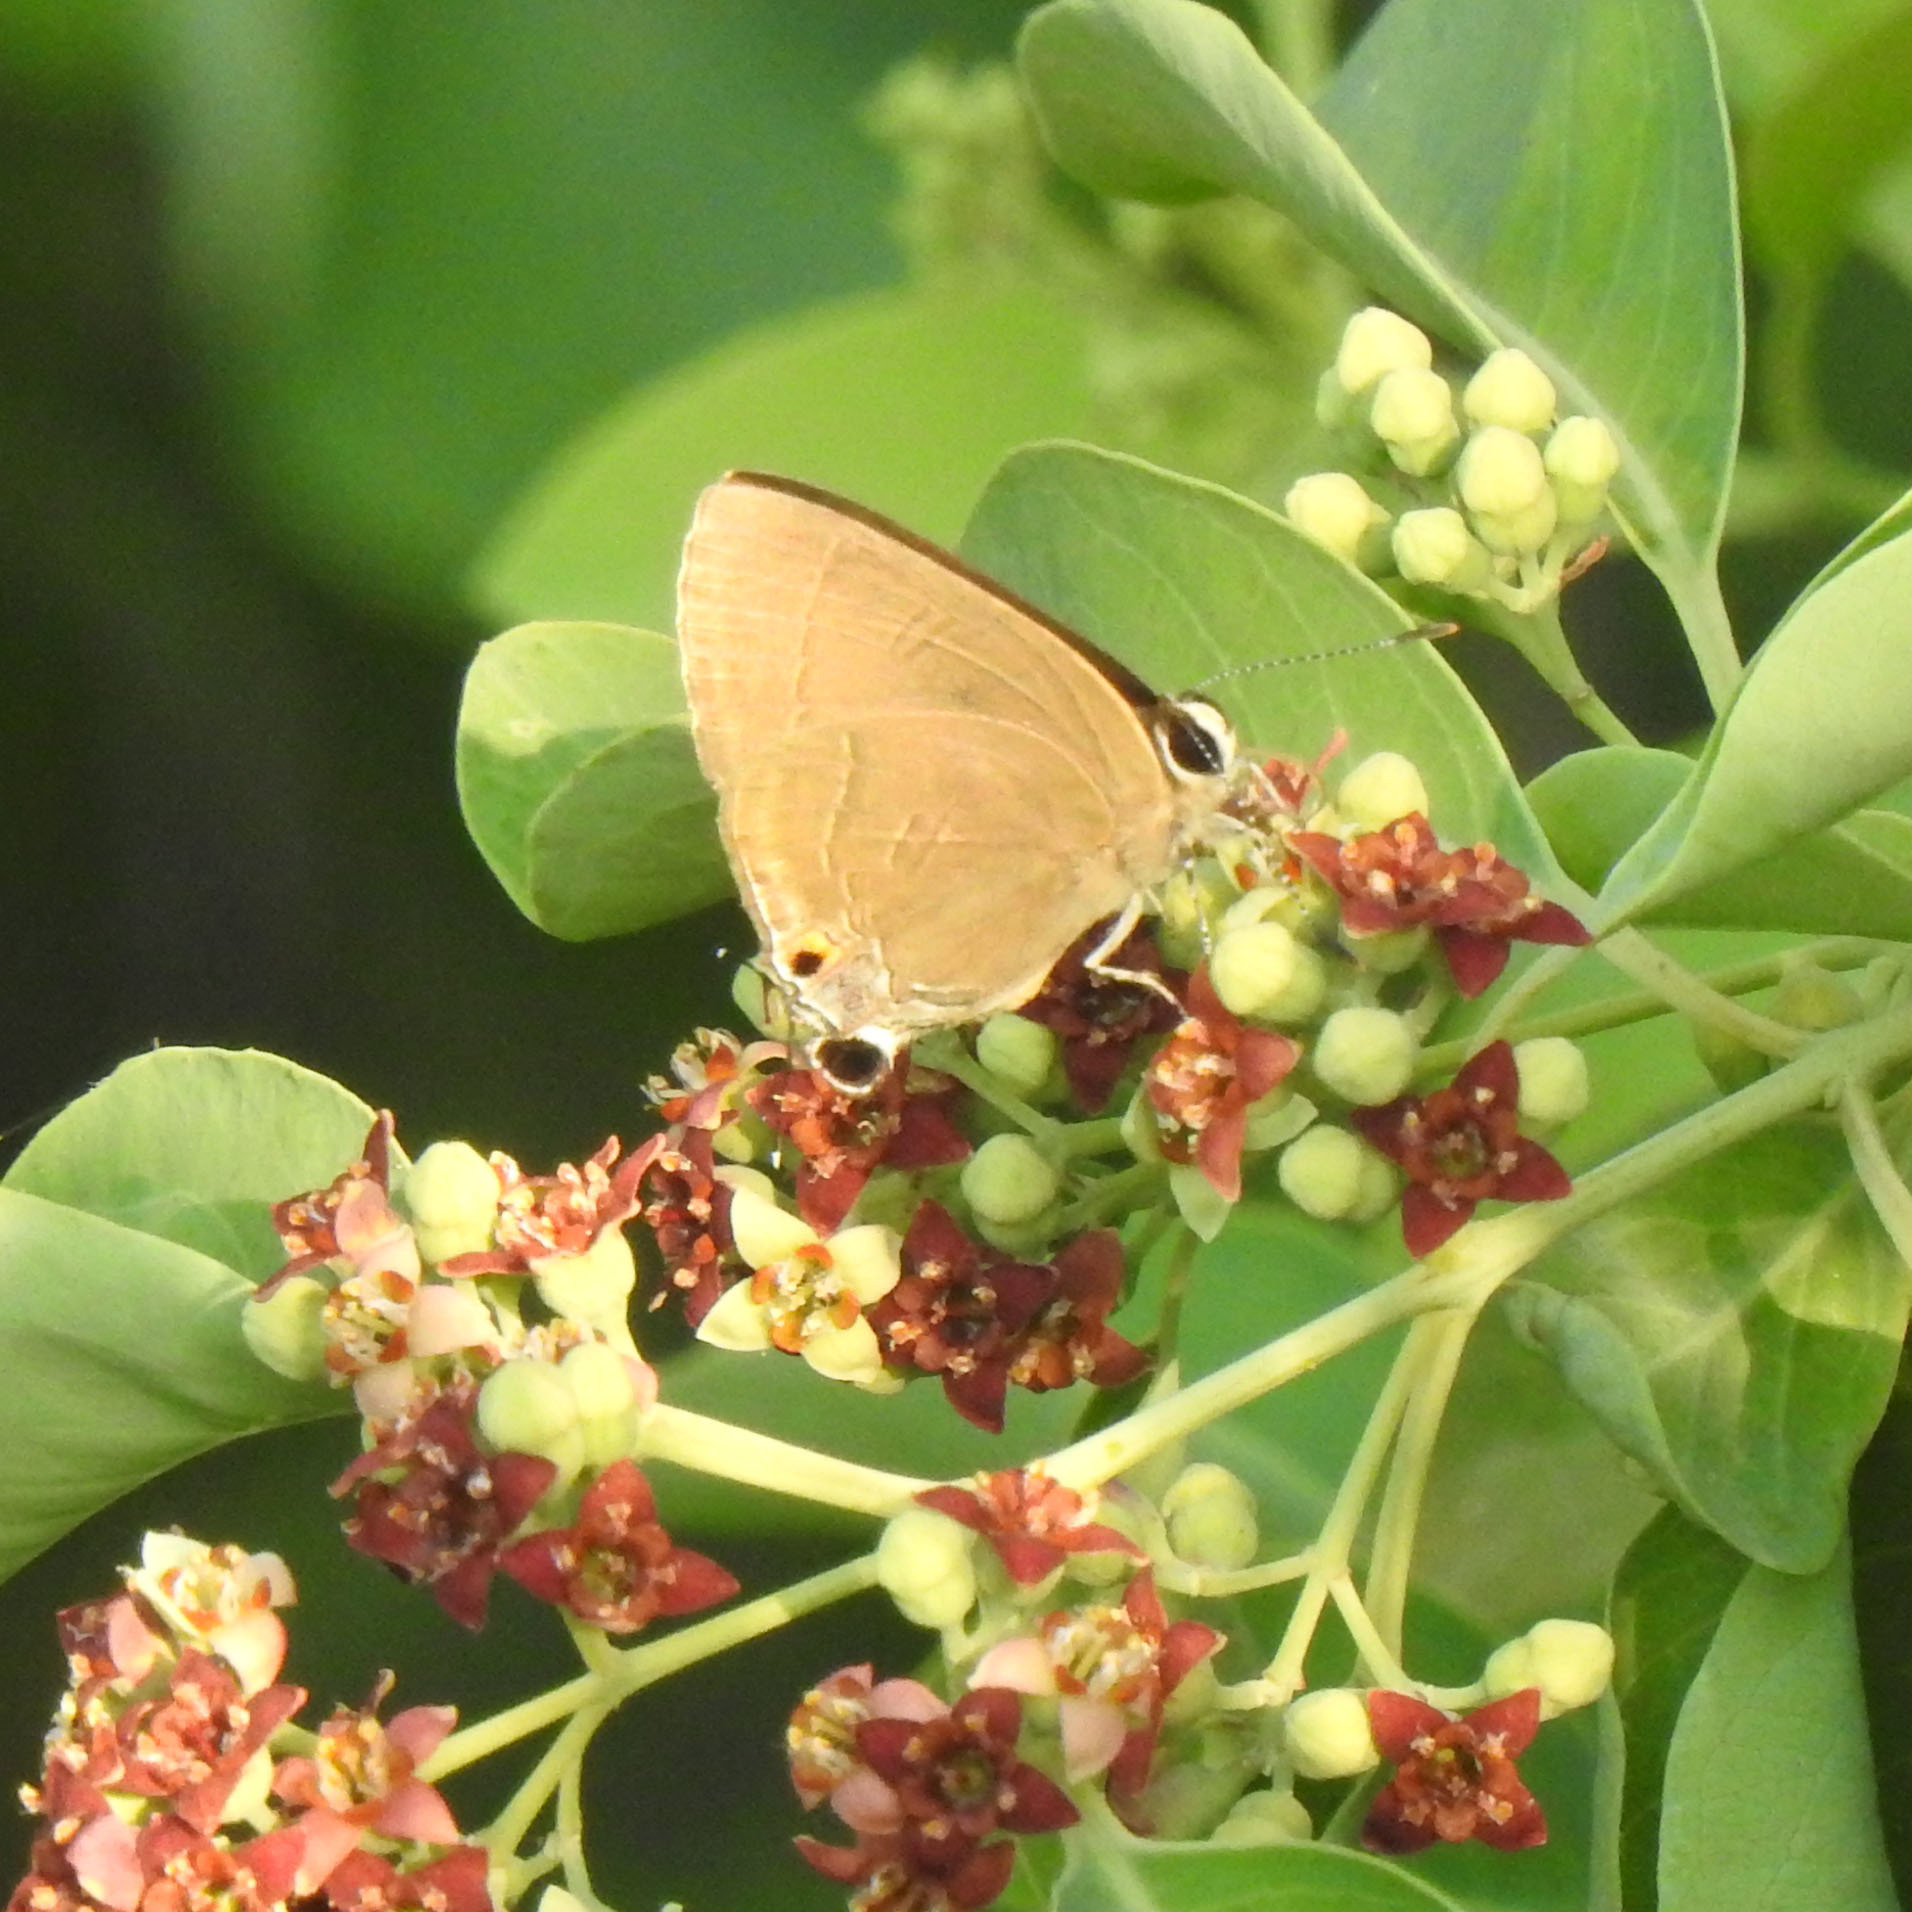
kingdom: Animalia
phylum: Arthropoda
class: Insecta
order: Lepidoptera
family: Lycaenidae
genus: Rapala
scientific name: Rapala manea
